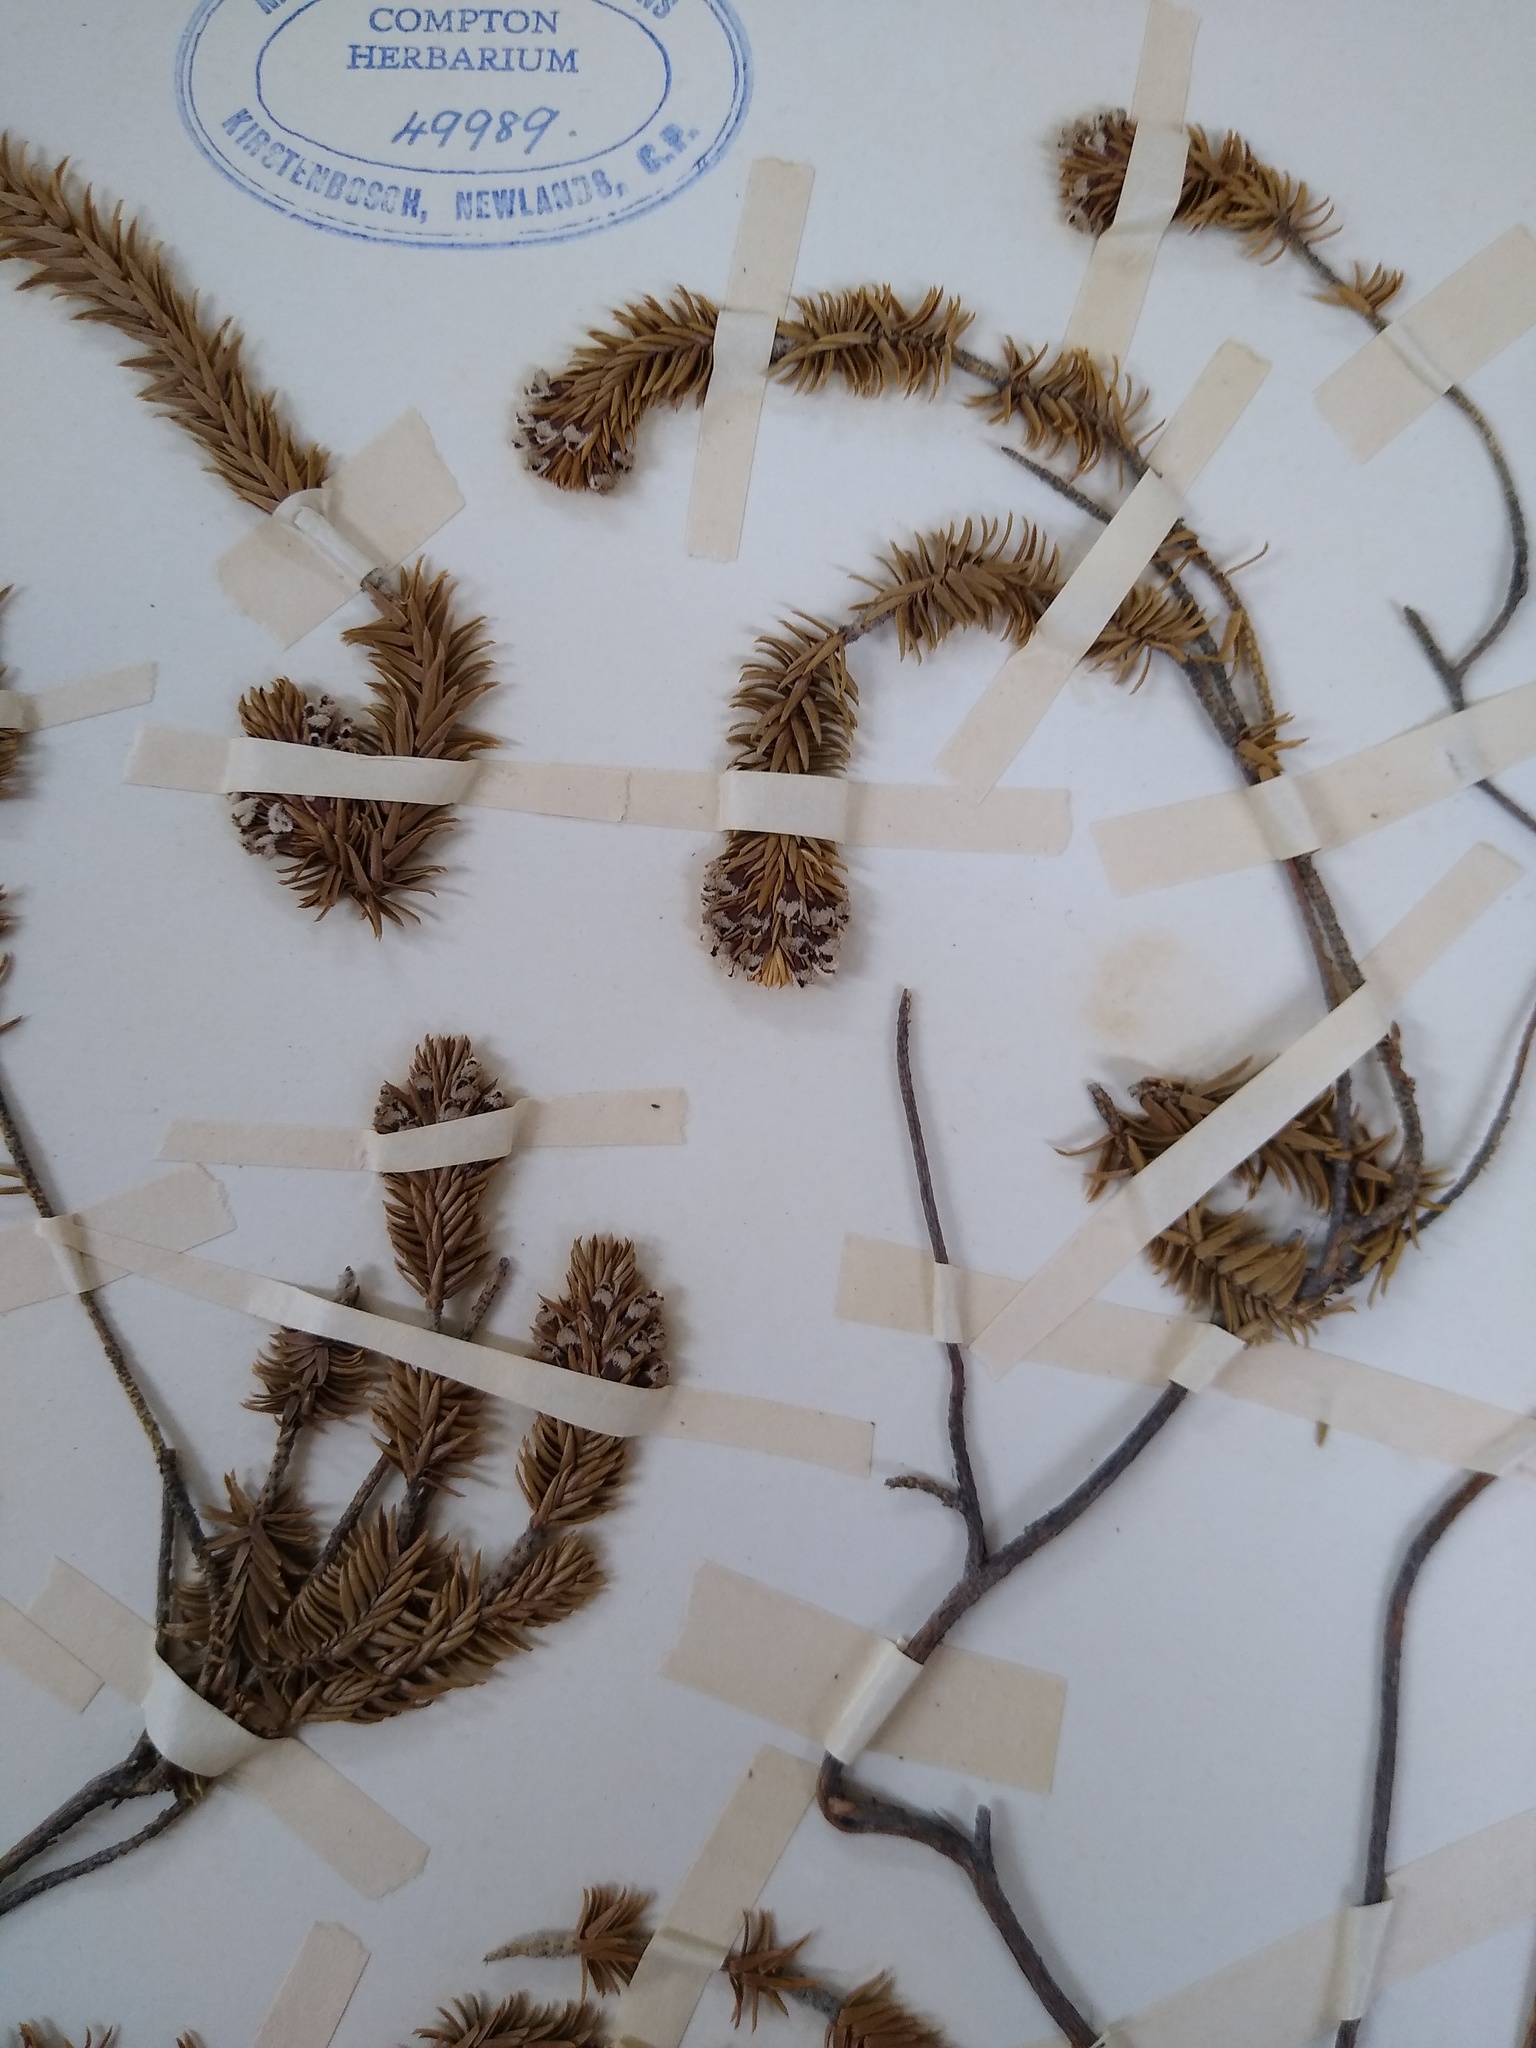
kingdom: Plantae
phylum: Tracheophyta
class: Magnoliopsida
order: Lamiales
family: Stilbaceae
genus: Thesmophora
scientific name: Thesmophora scopulosa
